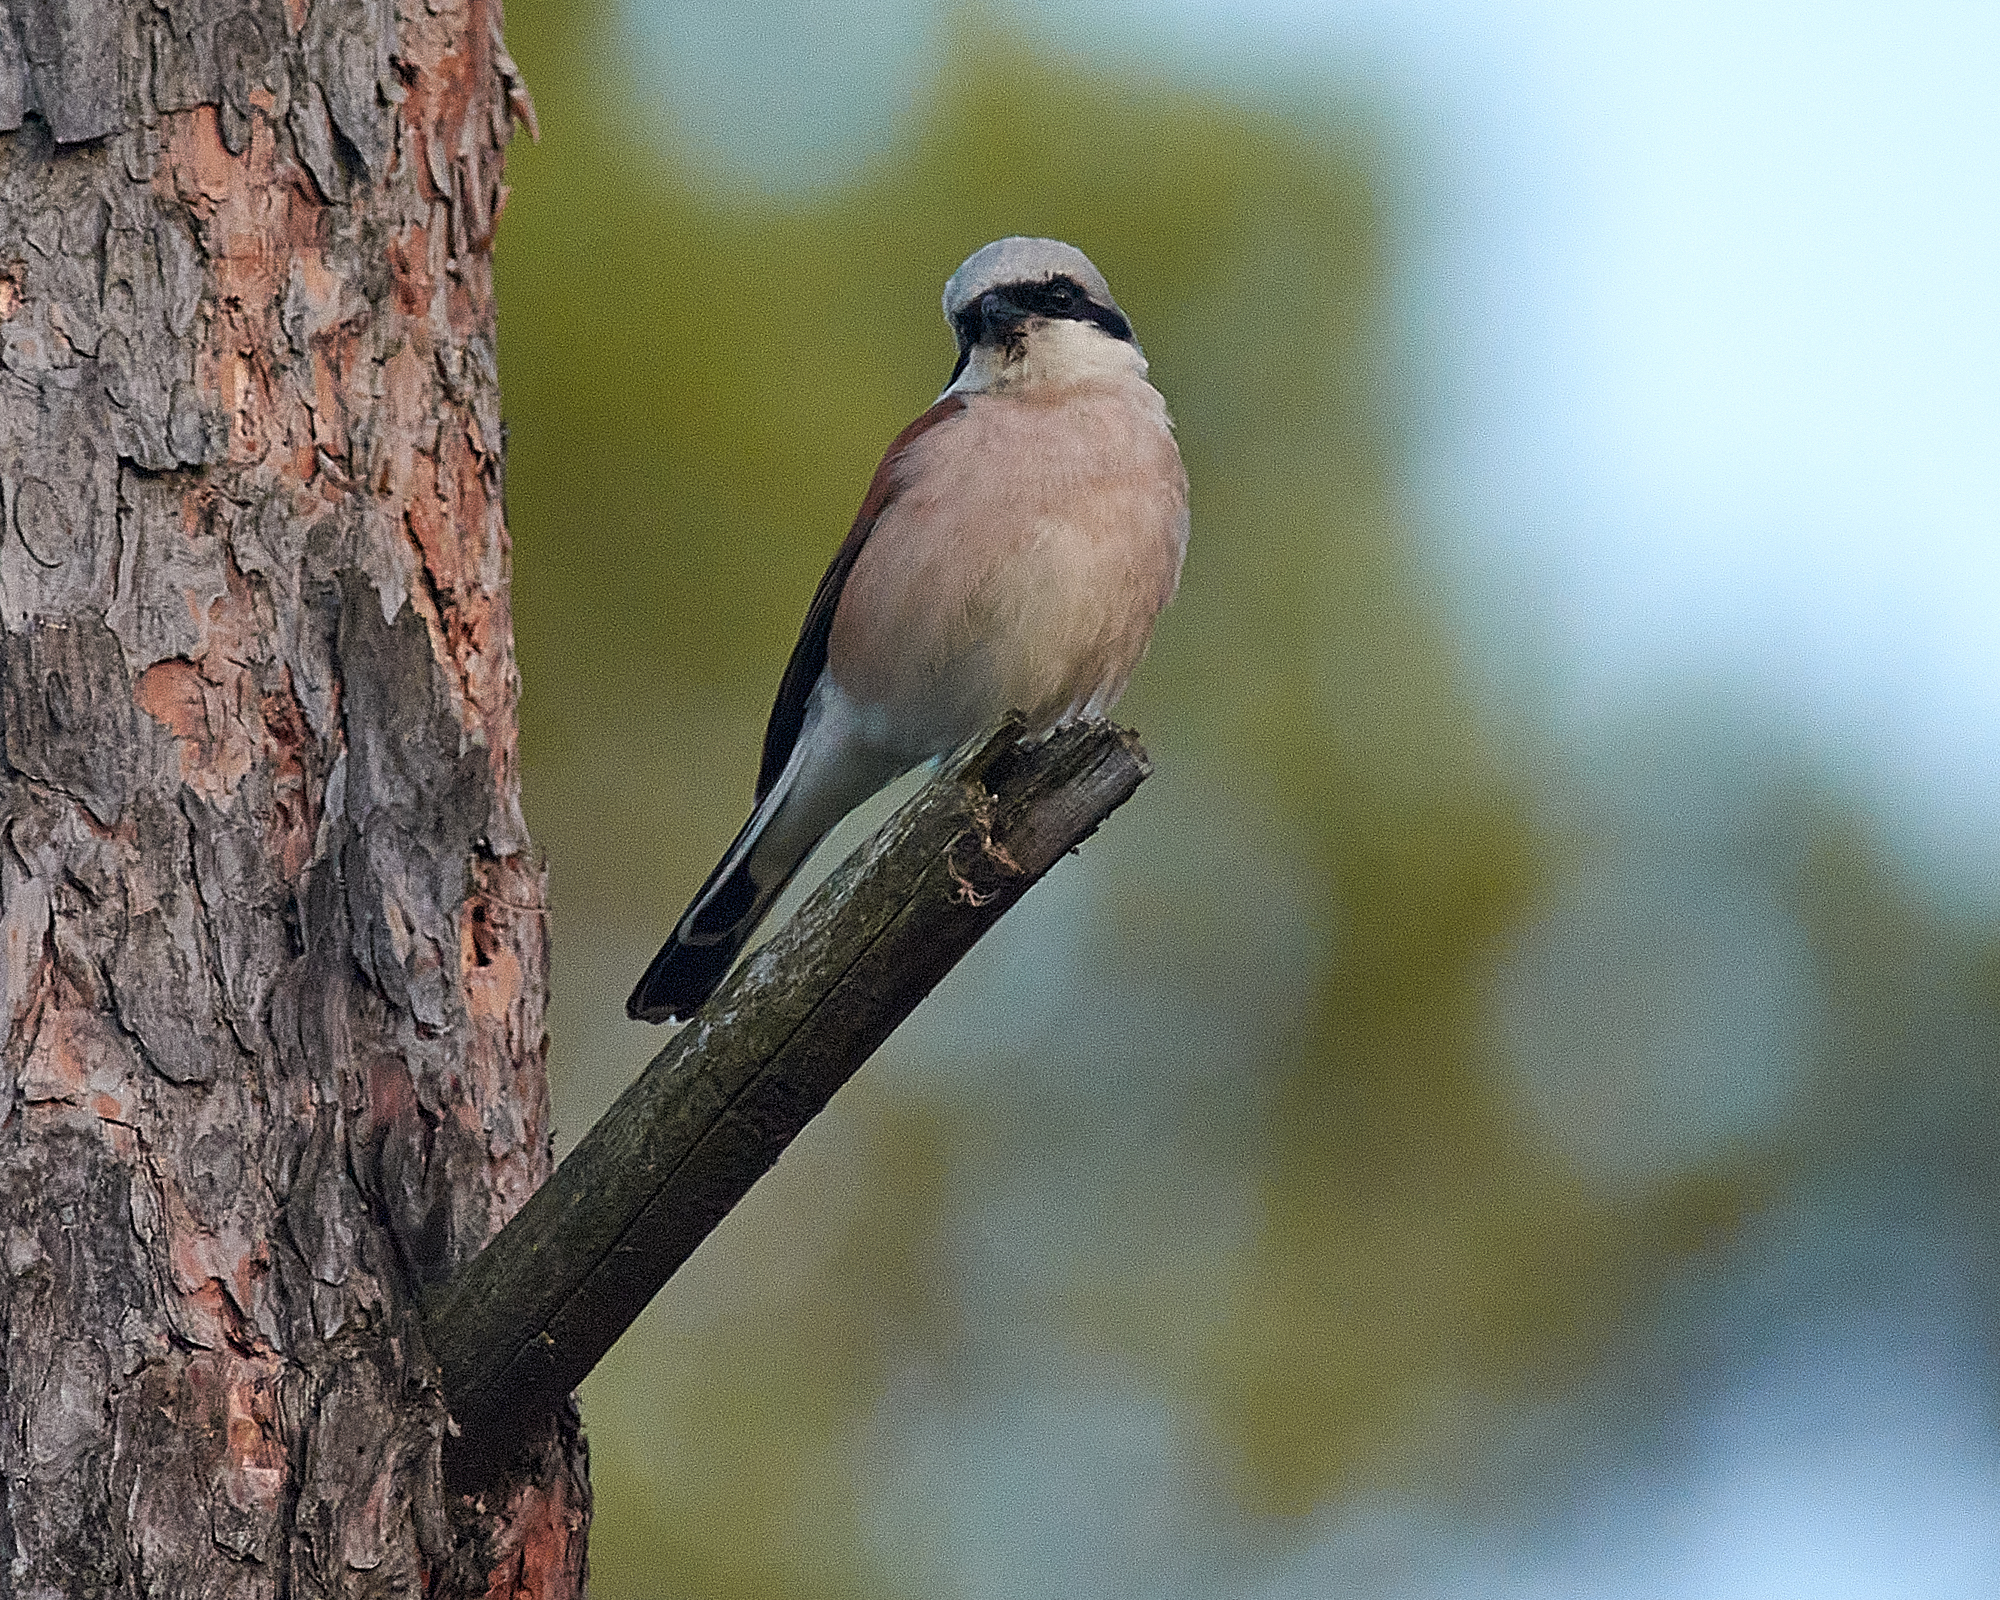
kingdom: Animalia
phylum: Chordata
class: Aves
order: Passeriformes
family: Laniidae
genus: Lanius
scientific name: Lanius collurio
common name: Red-backed shrike
